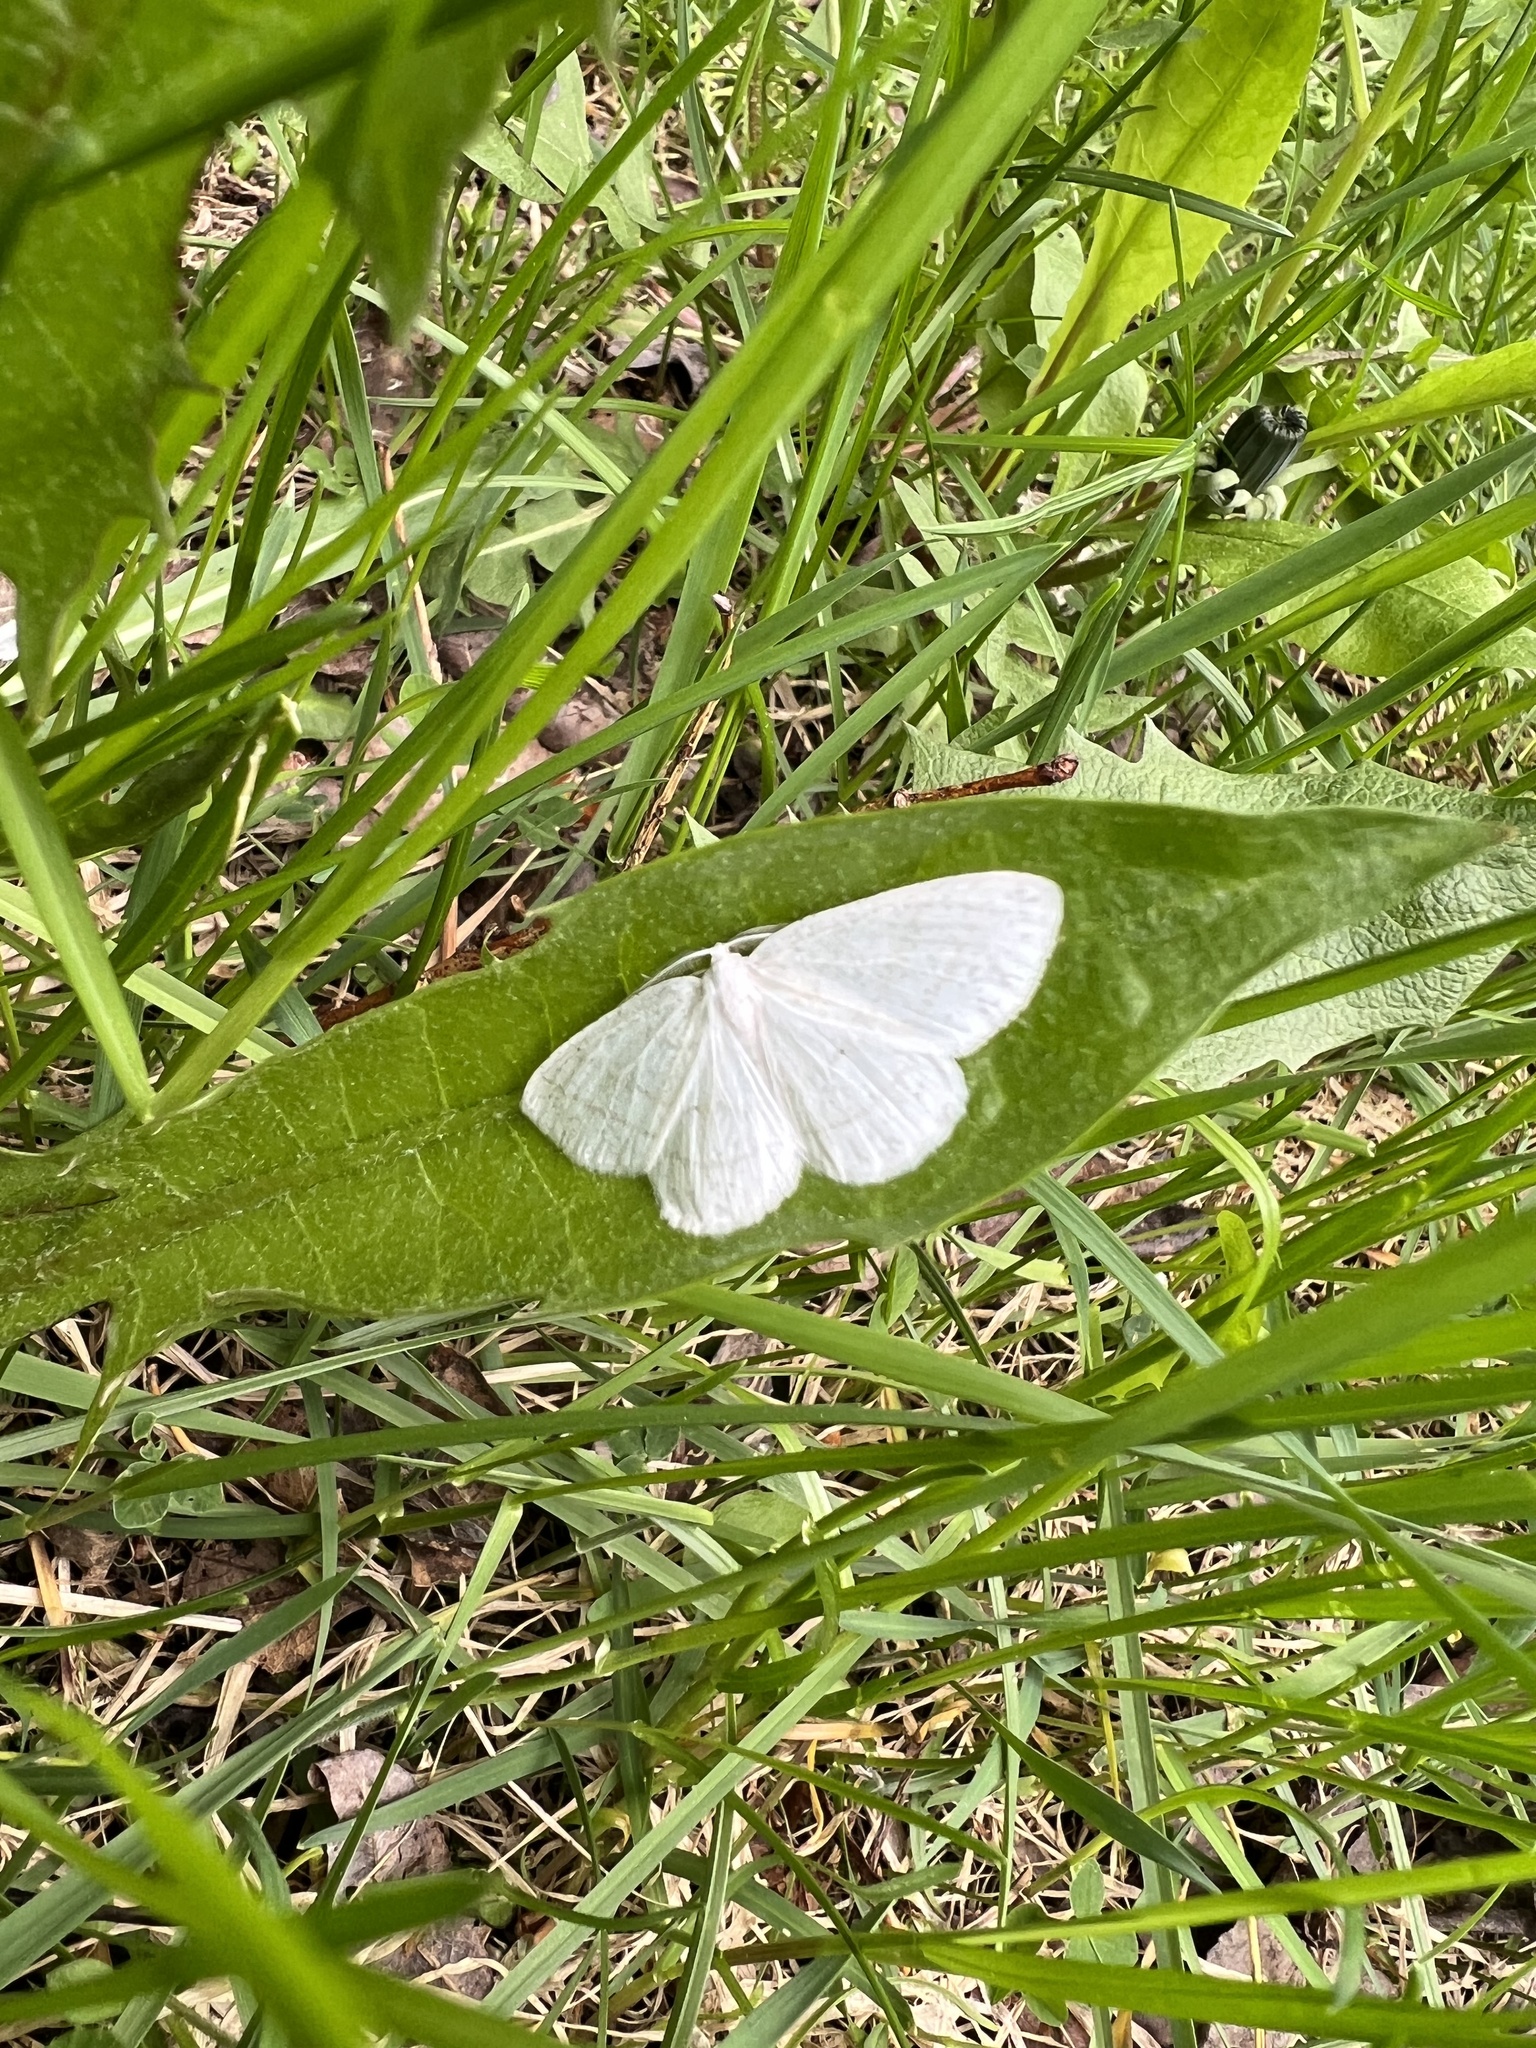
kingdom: Animalia
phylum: Arthropoda
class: Insecta
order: Lepidoptera
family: Geometridae
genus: Cabera
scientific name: Cabera pusaria
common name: Common white wave
